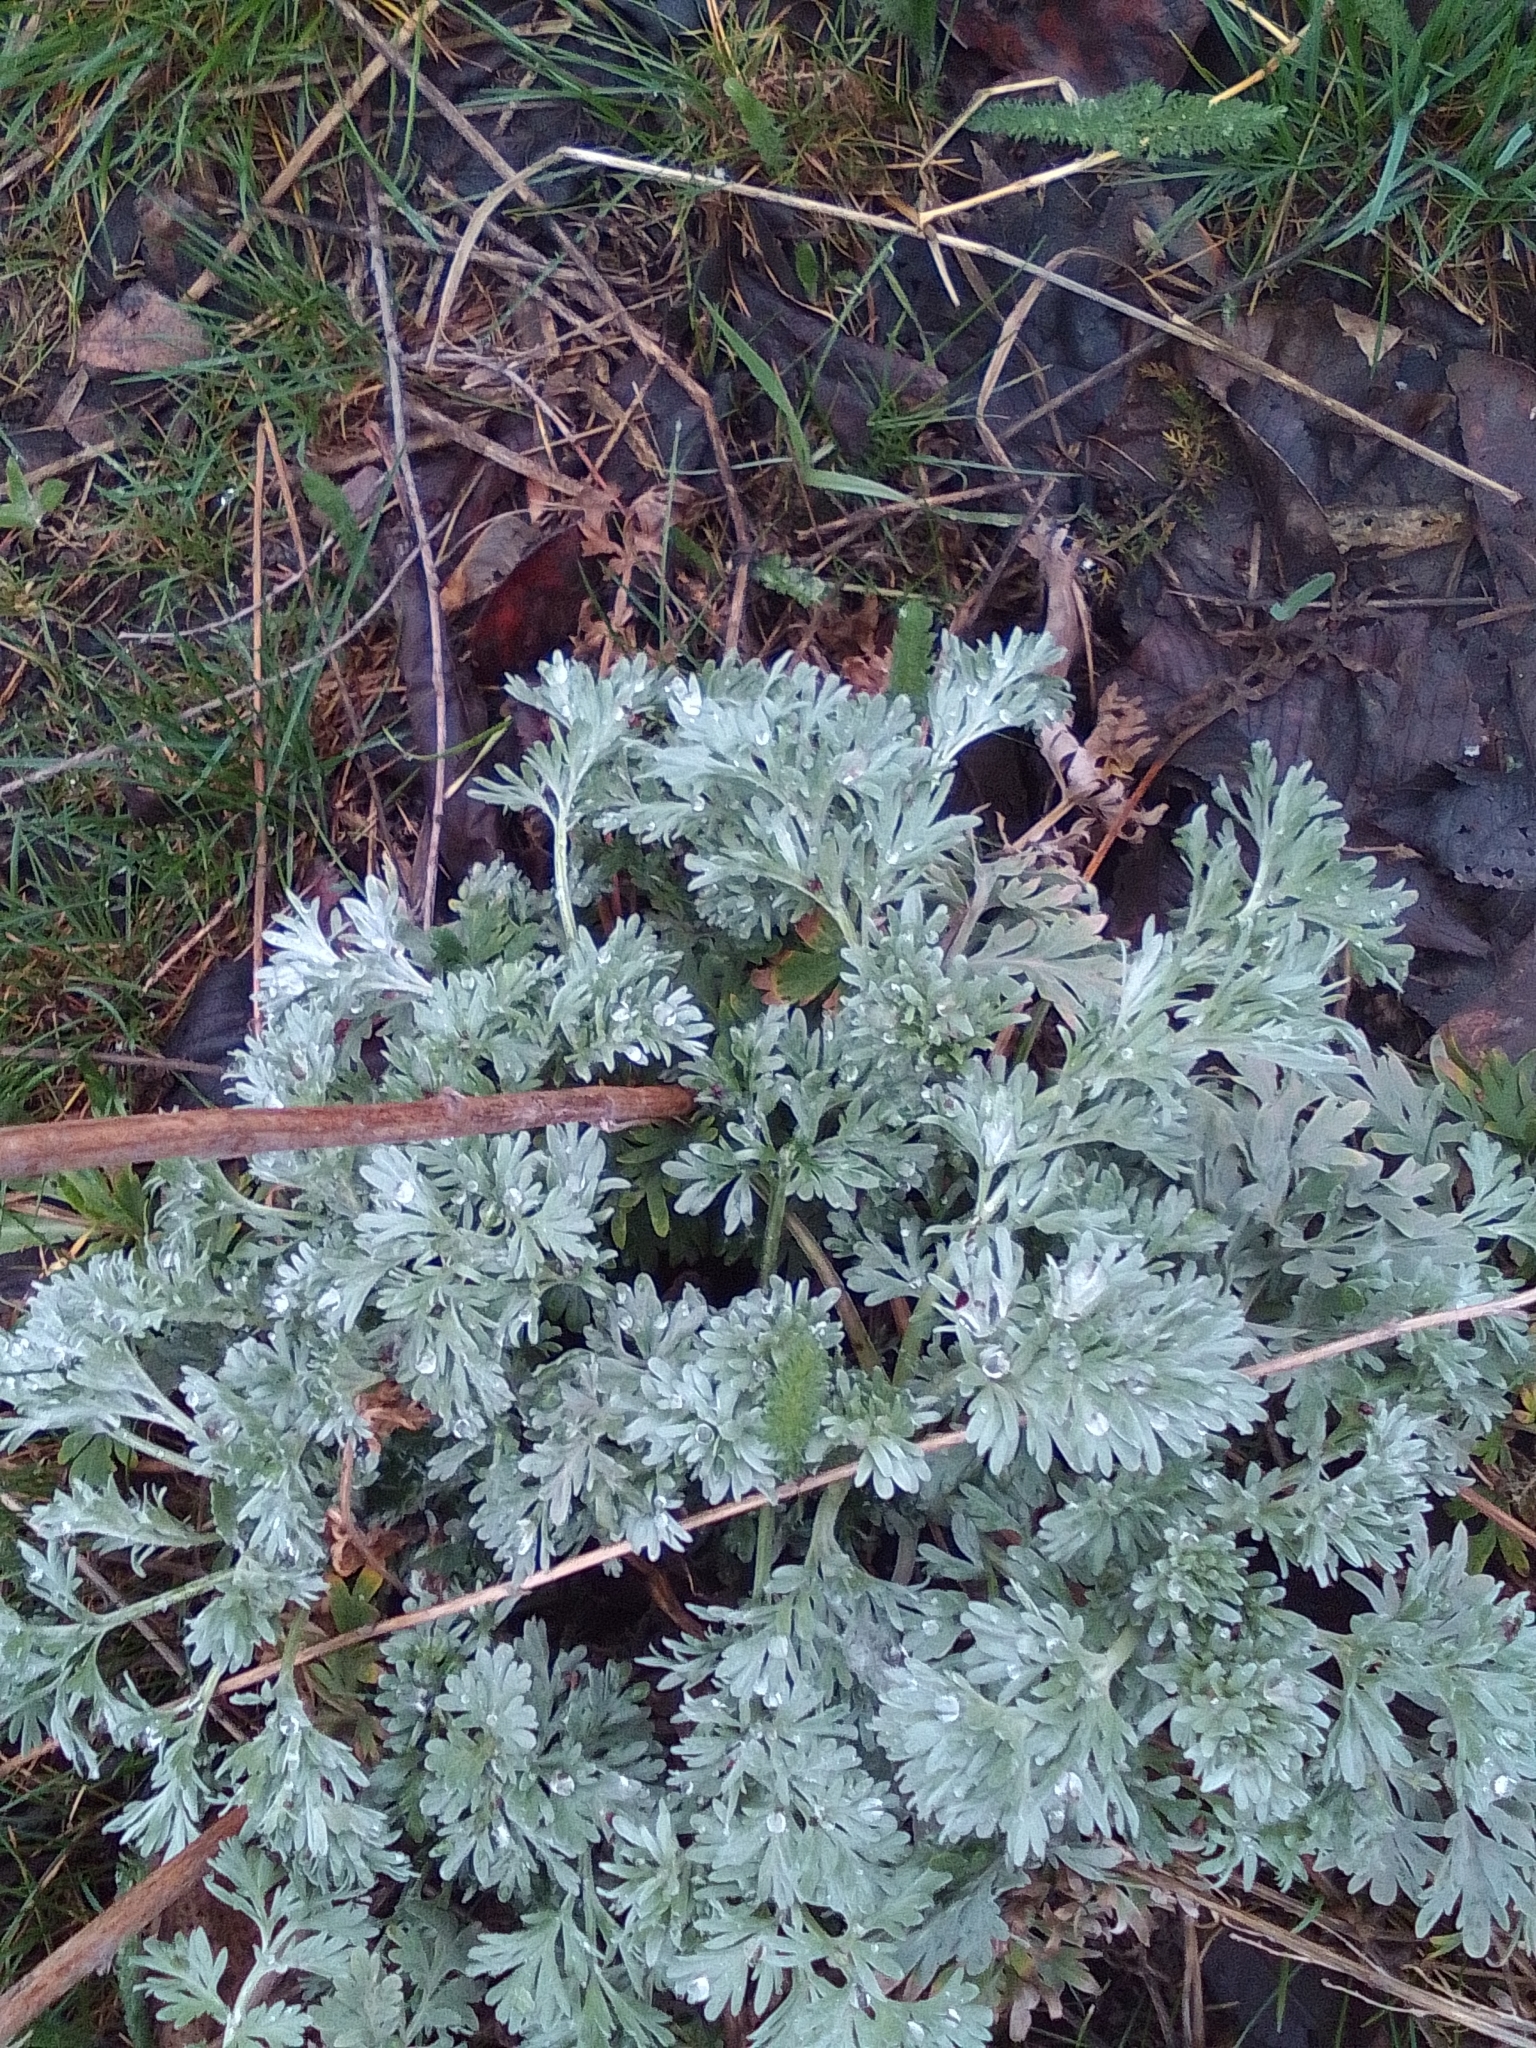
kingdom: Plantae
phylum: Tracheophyta
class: Magnoliopsida
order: Asterales
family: Asteraceae
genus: Artemisia
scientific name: Artemisia absinthium
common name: Wormwood
